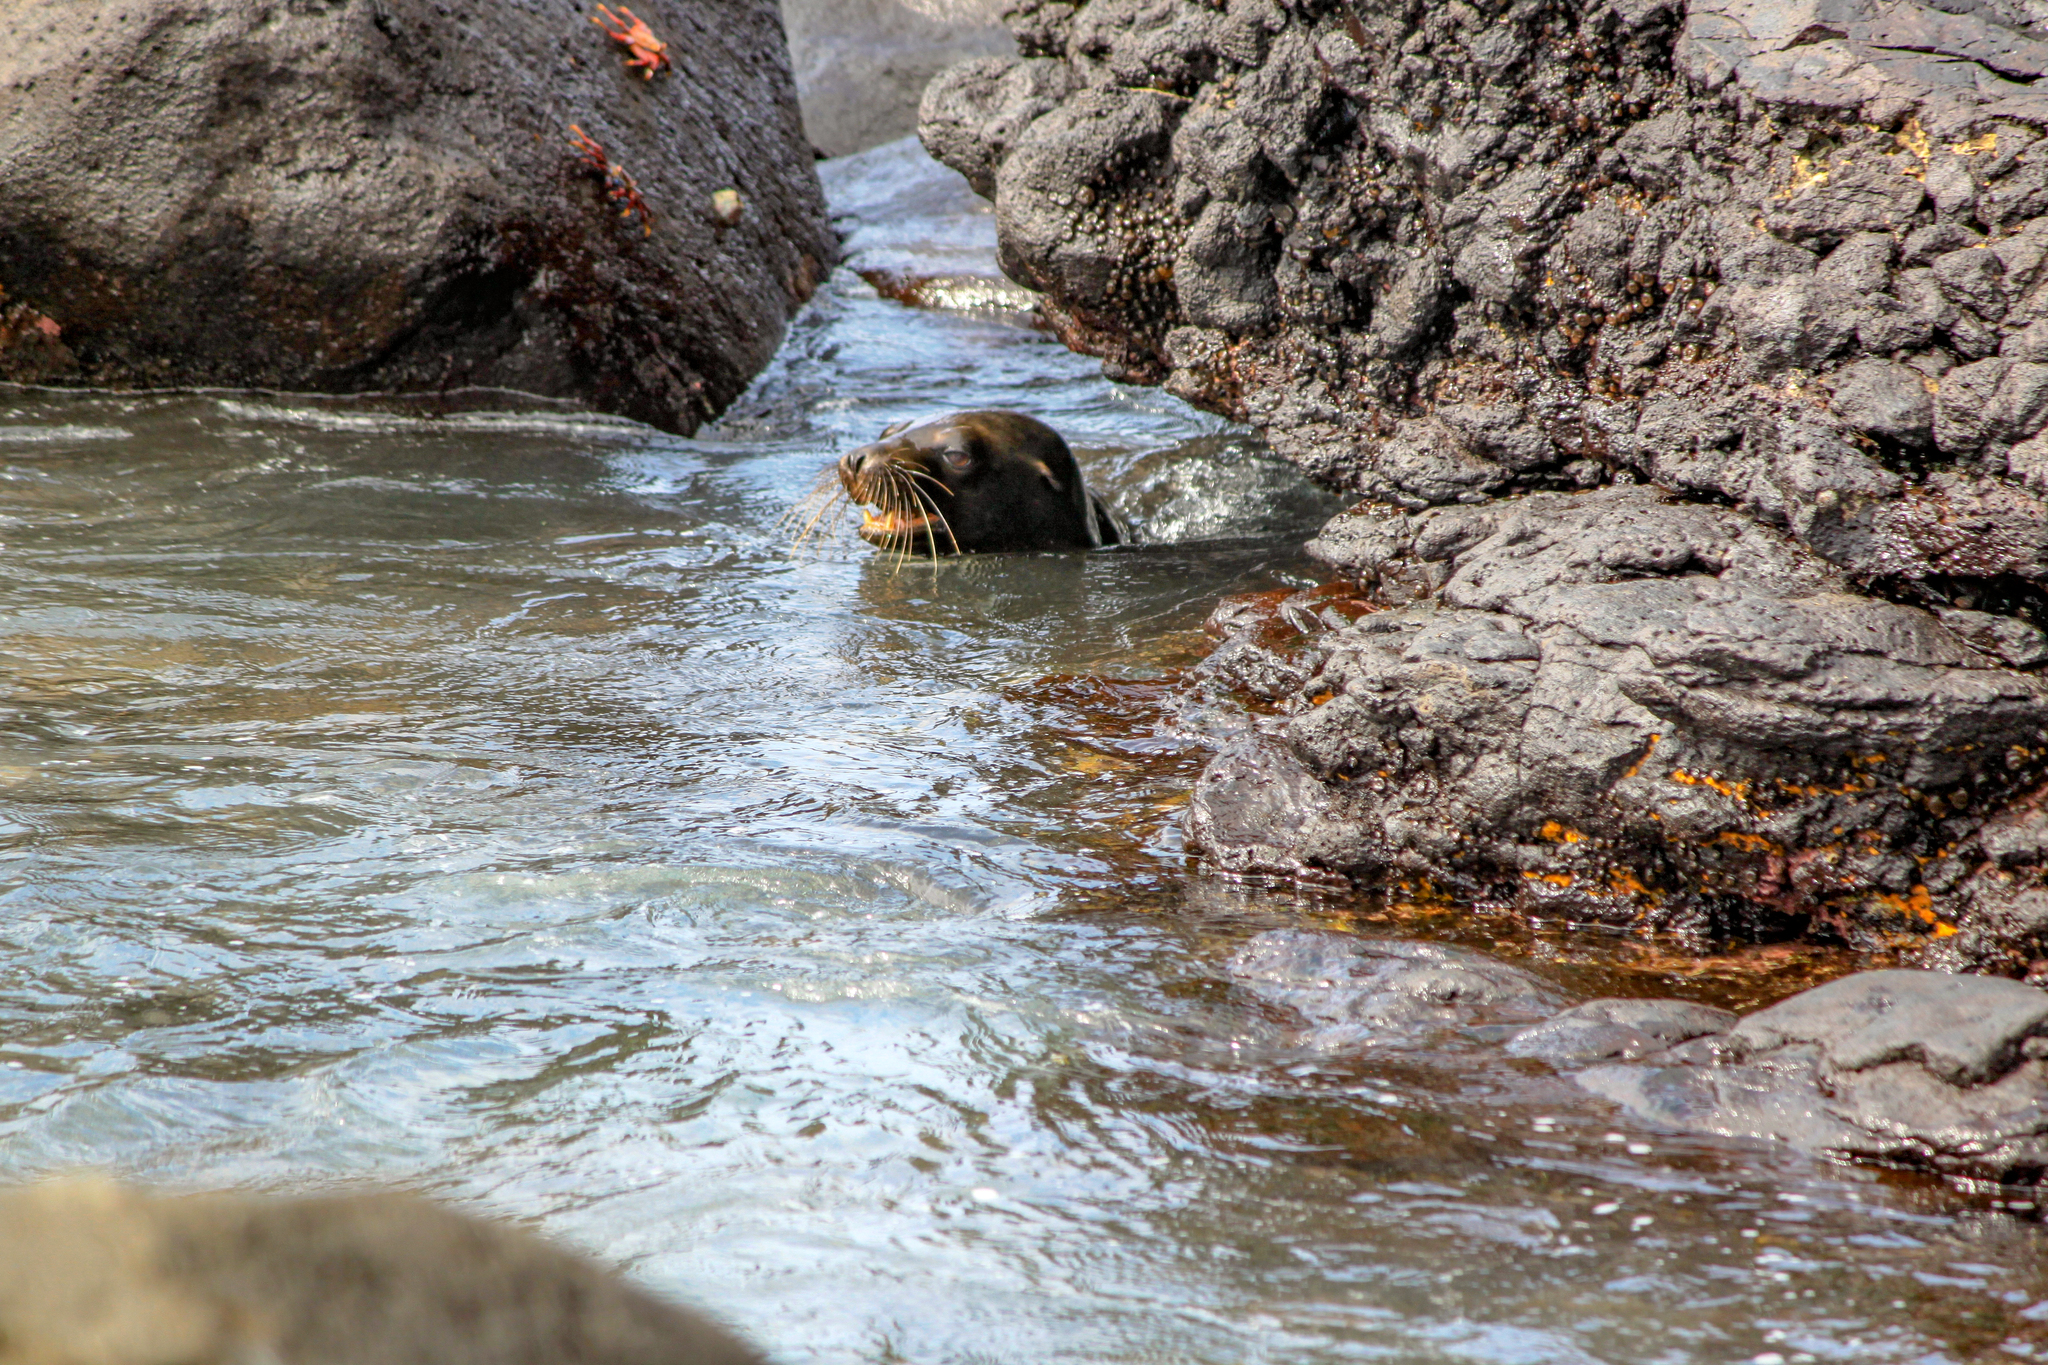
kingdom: Animalia
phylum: Chordata
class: Mammalia
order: Carnivora
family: Otariidae
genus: Zalophus
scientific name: Zalophus wollebaeki
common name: Galapagos sea lion
